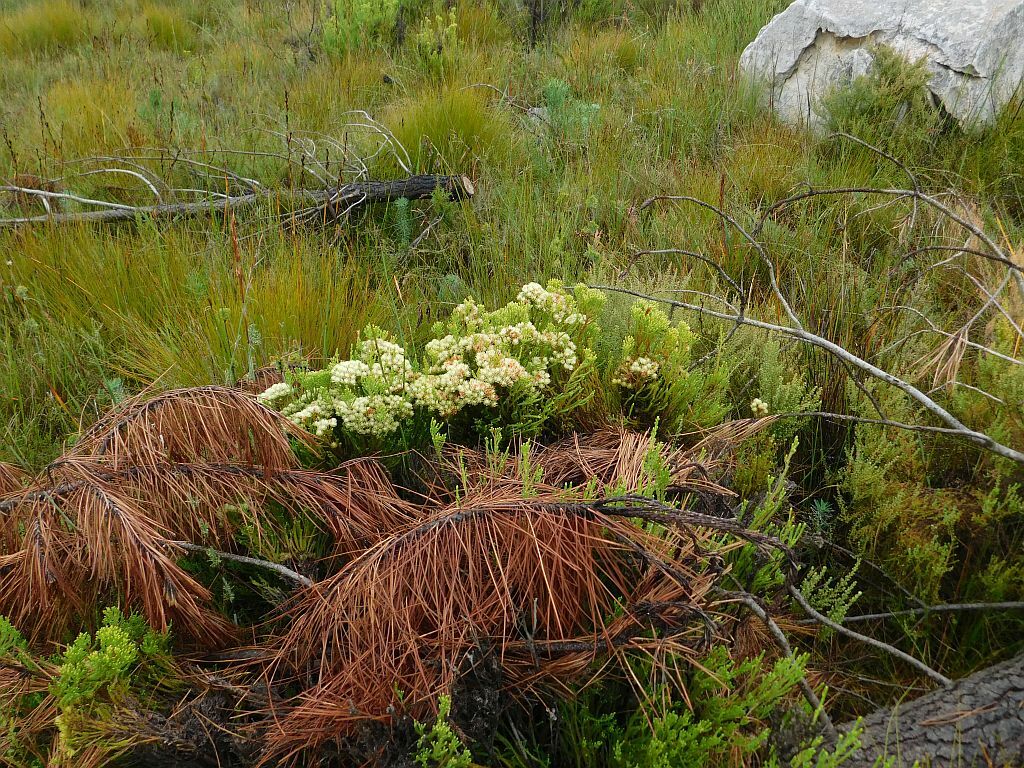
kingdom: Plantae
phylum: Tracheophyta
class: Magnoliopsida
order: Bruniales
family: Bruniaceae
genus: Brunia
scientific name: Brunia paleacea
